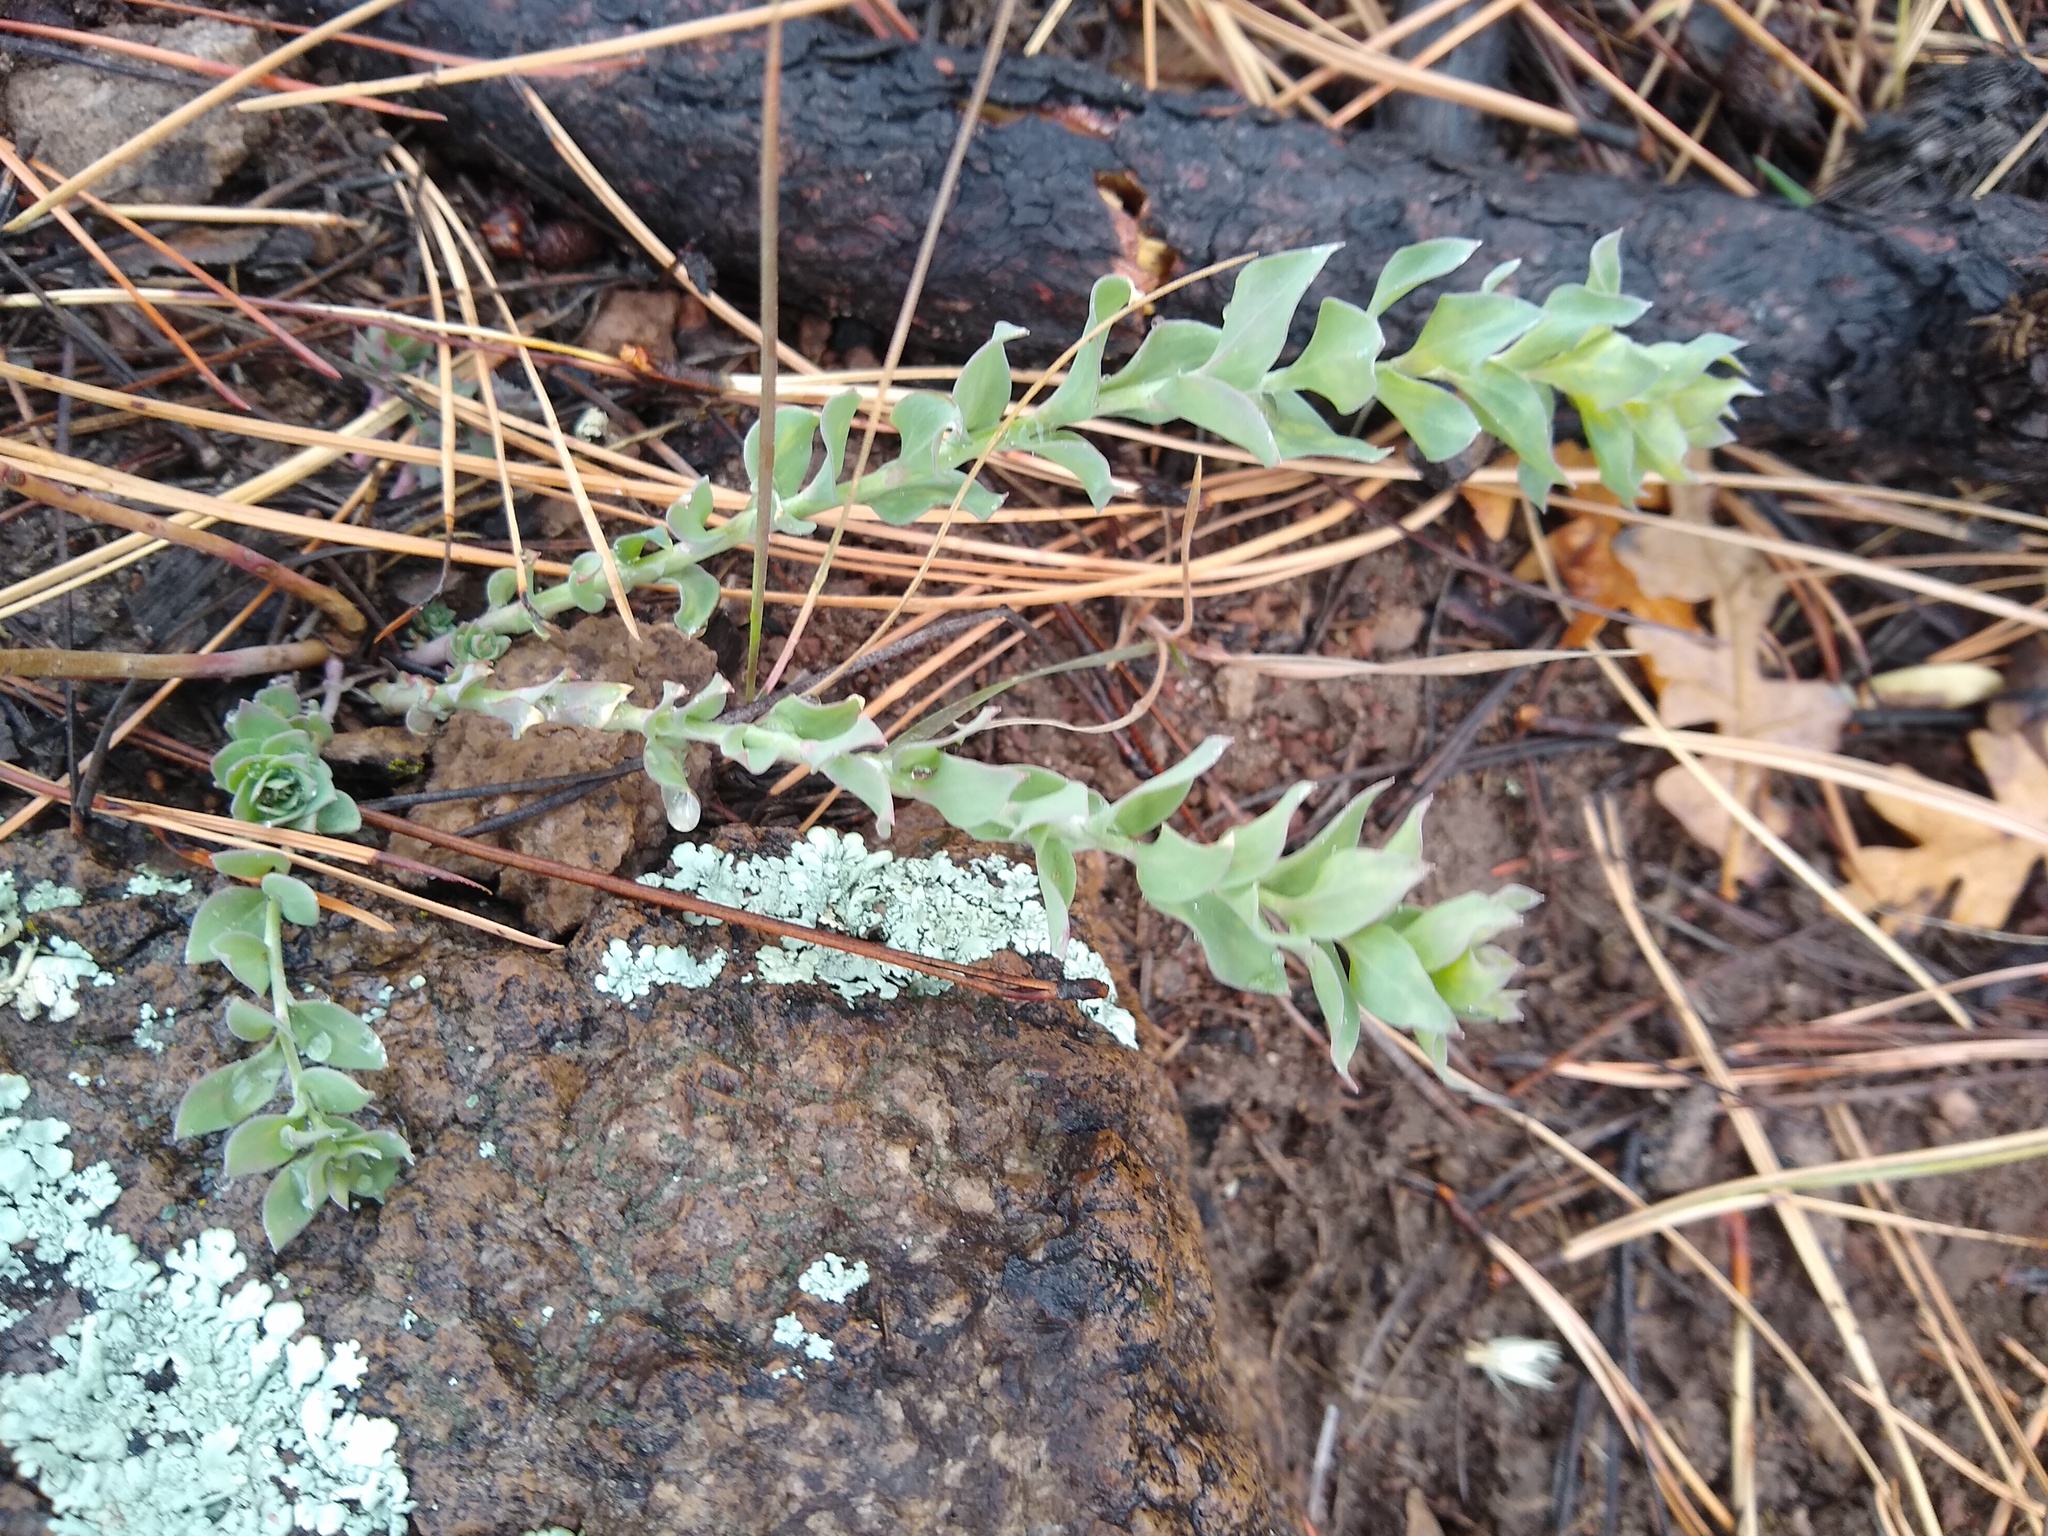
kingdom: Plantae
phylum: Tracheophyta
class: Magnoliopsida
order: Lamiales
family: Plantaginaceae
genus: Linaria
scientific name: Linaria dalmatica
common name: Dalmatian toadflax
